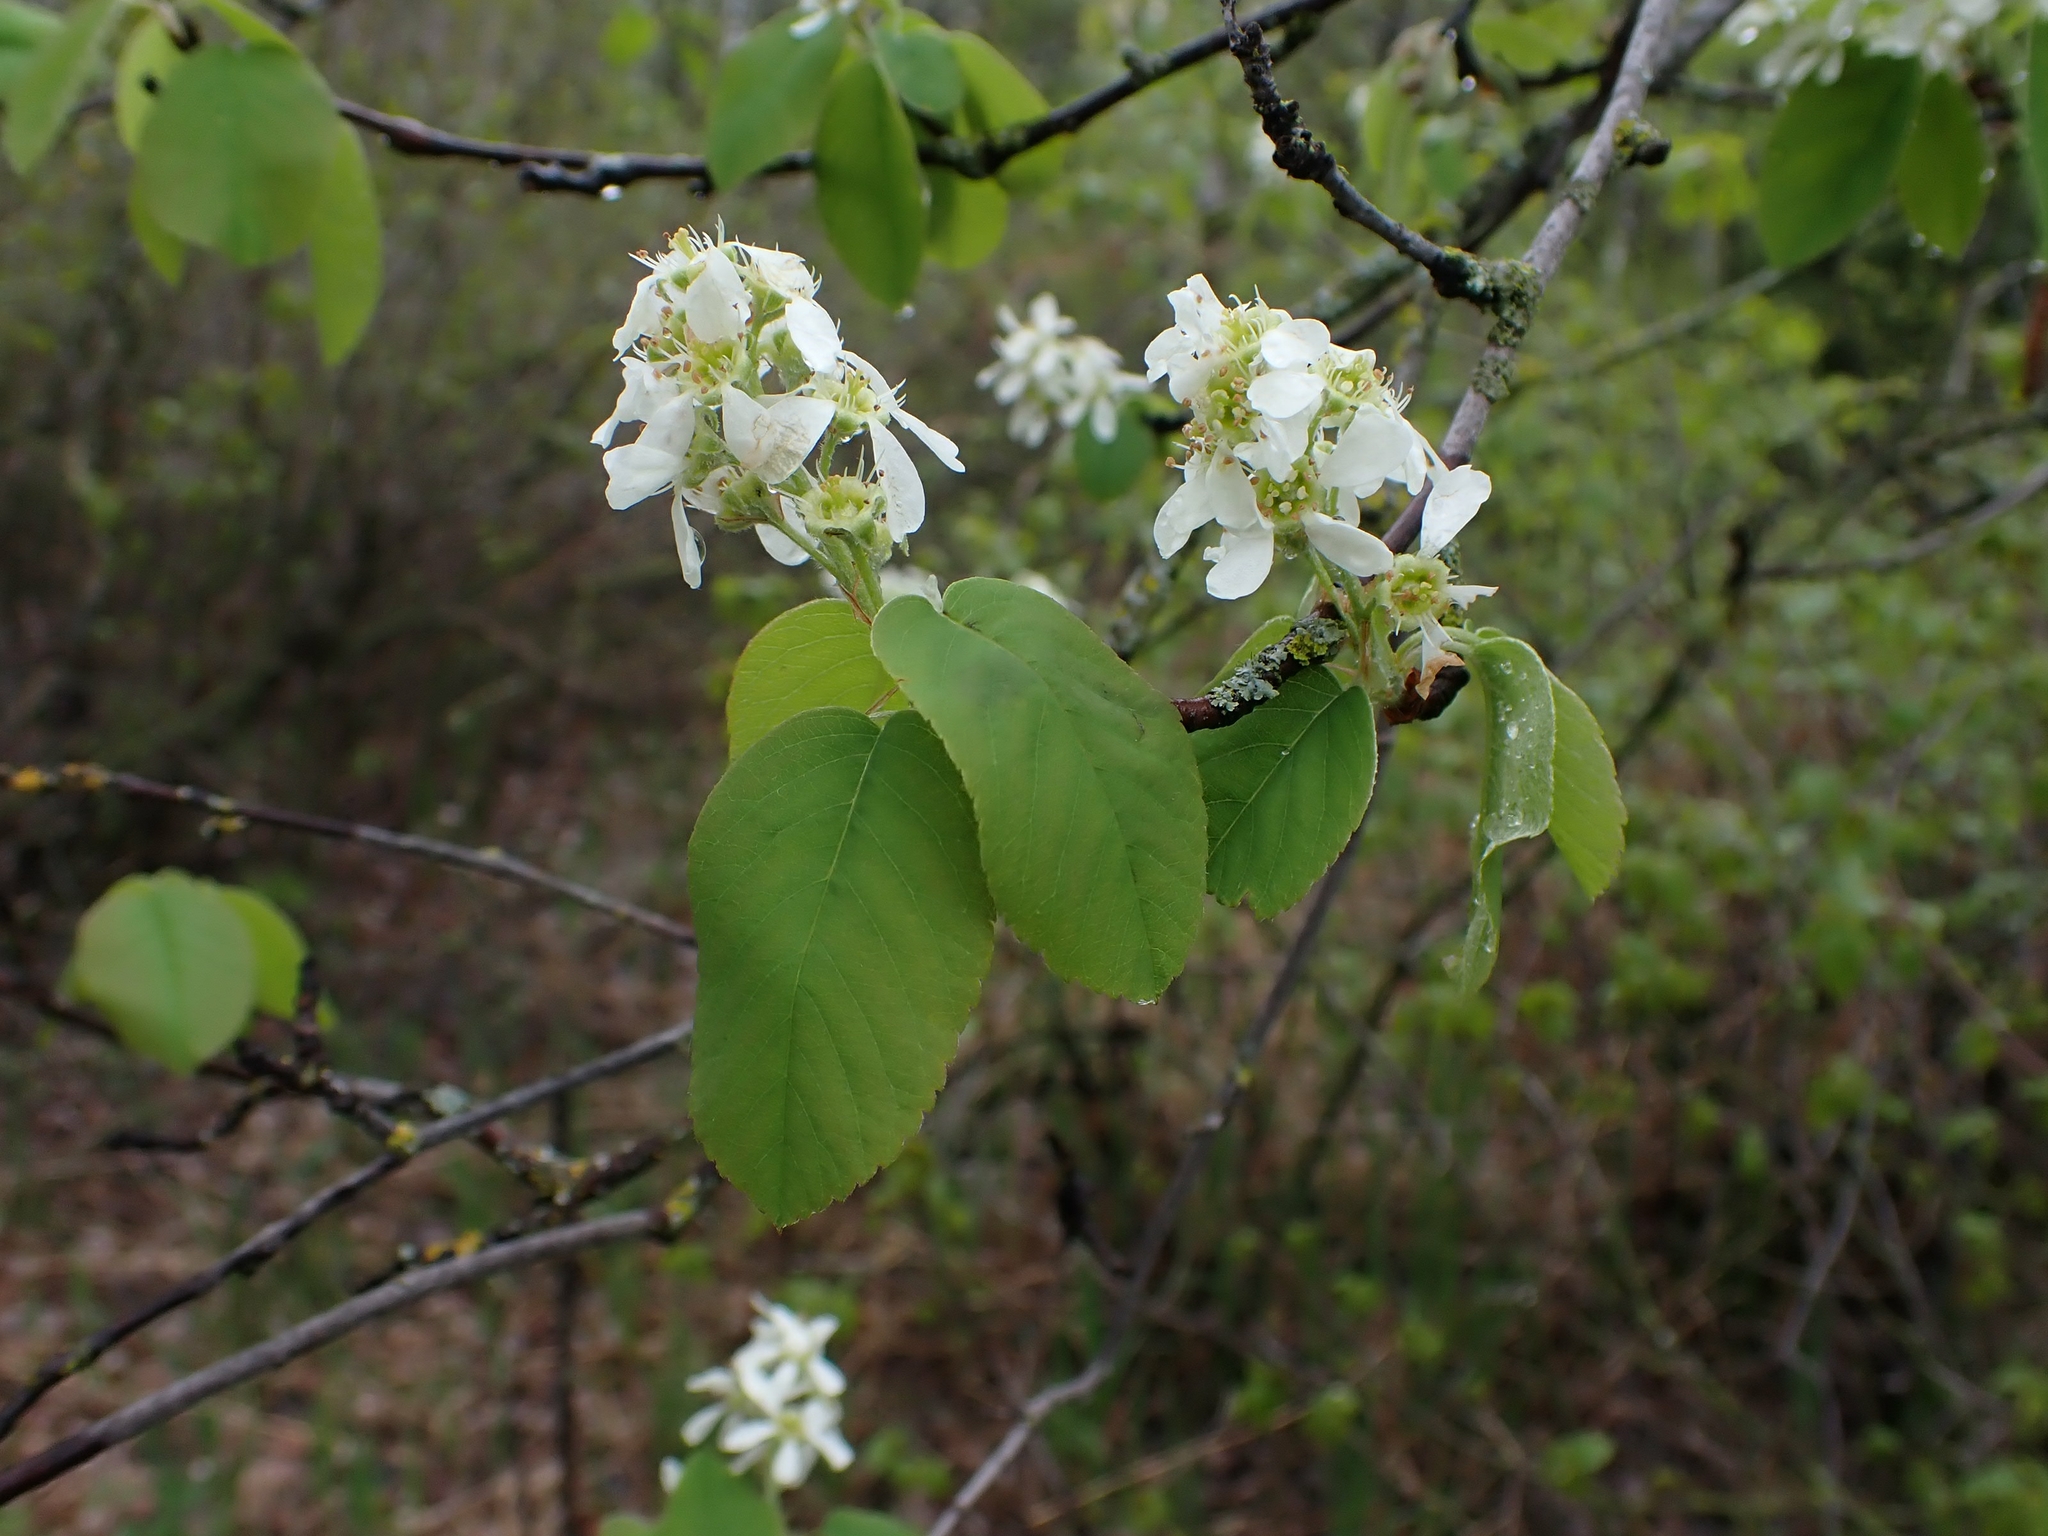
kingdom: Plantae
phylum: Tracheophyta
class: Magnoliopsida
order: Rosales
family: Rosaceae
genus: Amelanchier
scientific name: Amelanchier alnifolia
